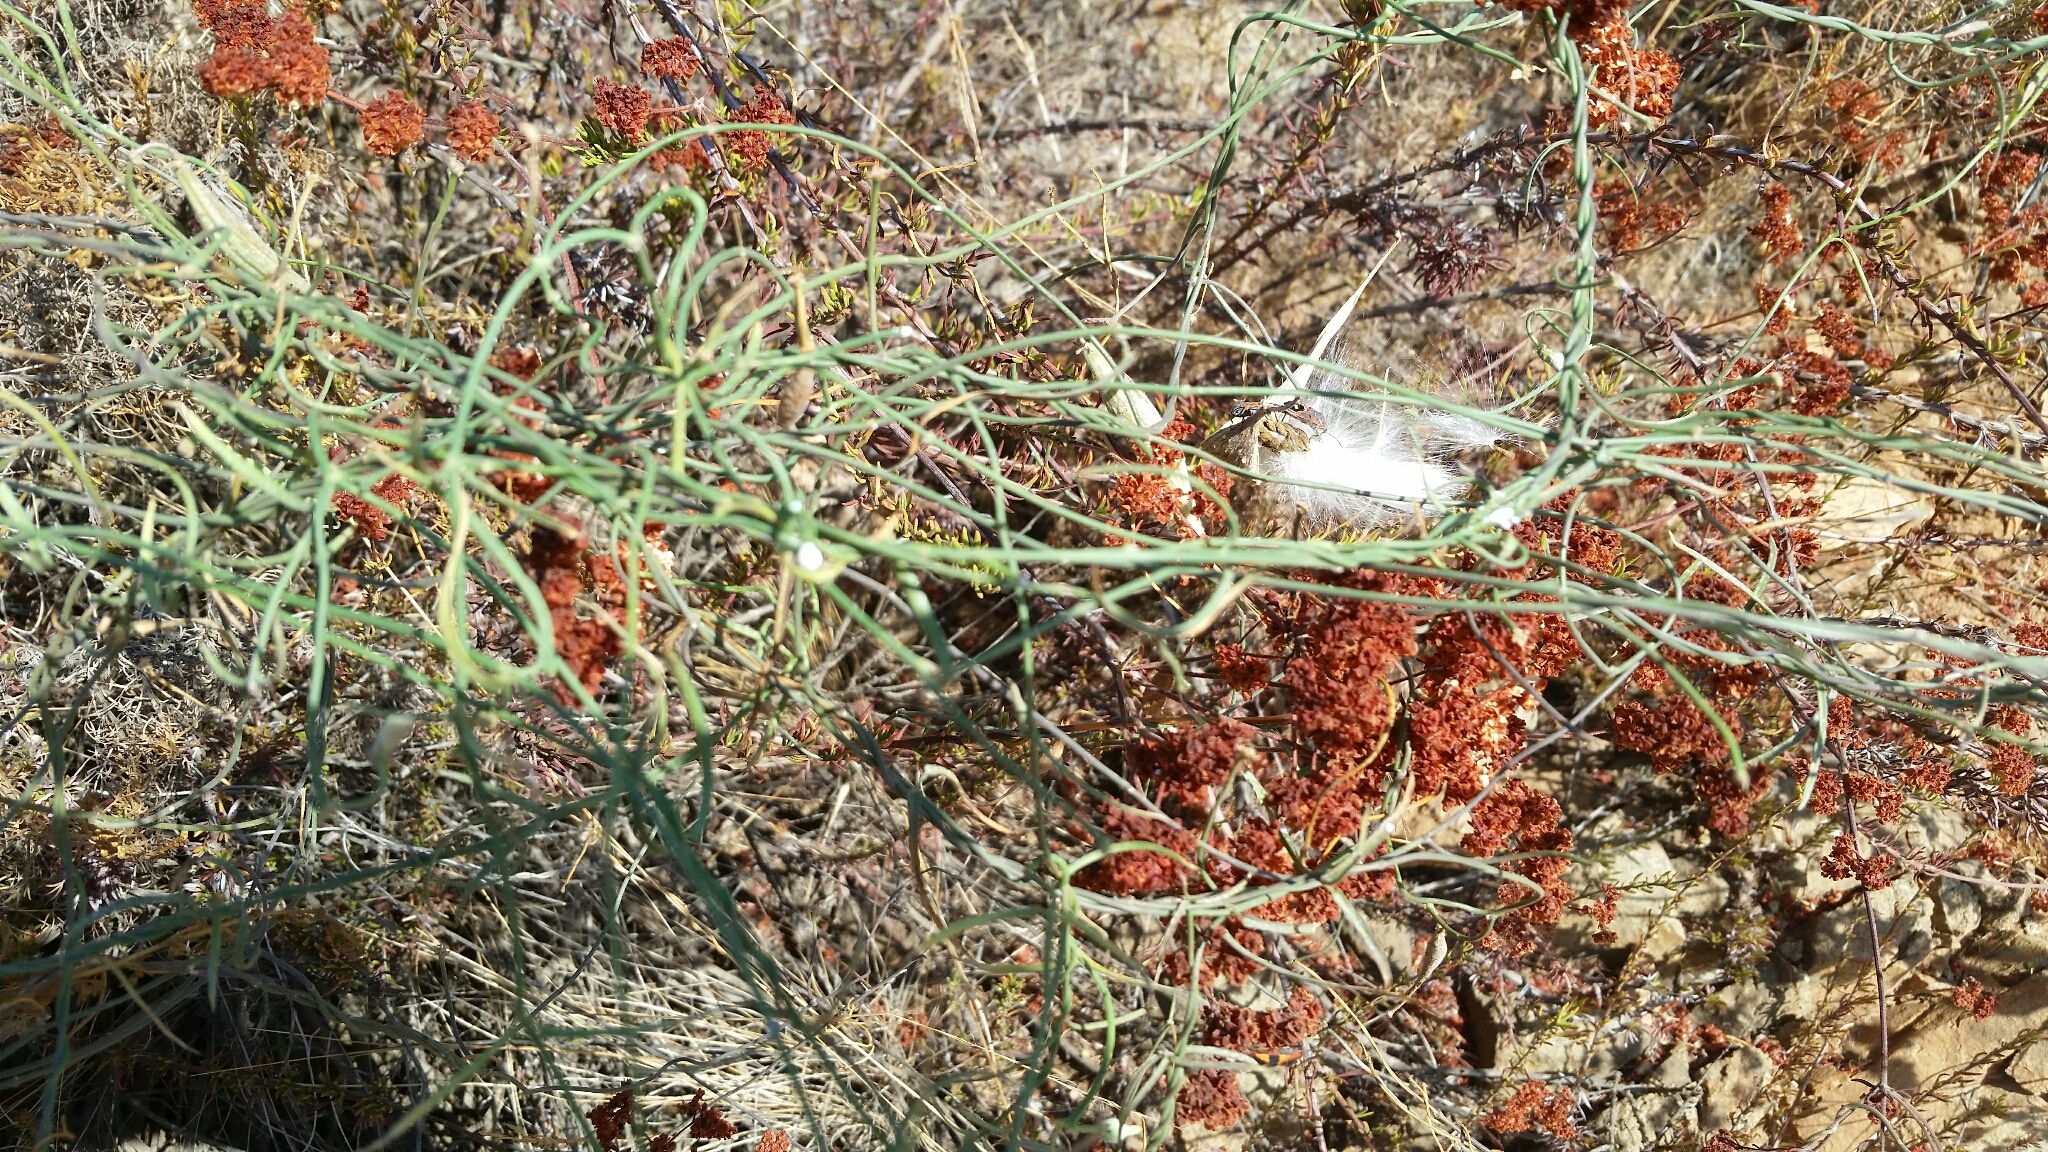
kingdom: Plantae
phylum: Tracheophyta
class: Magnoliopsida
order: Gentianales
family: Apocynaceae
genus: Funastrum
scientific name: Funastrum heterophyllum
